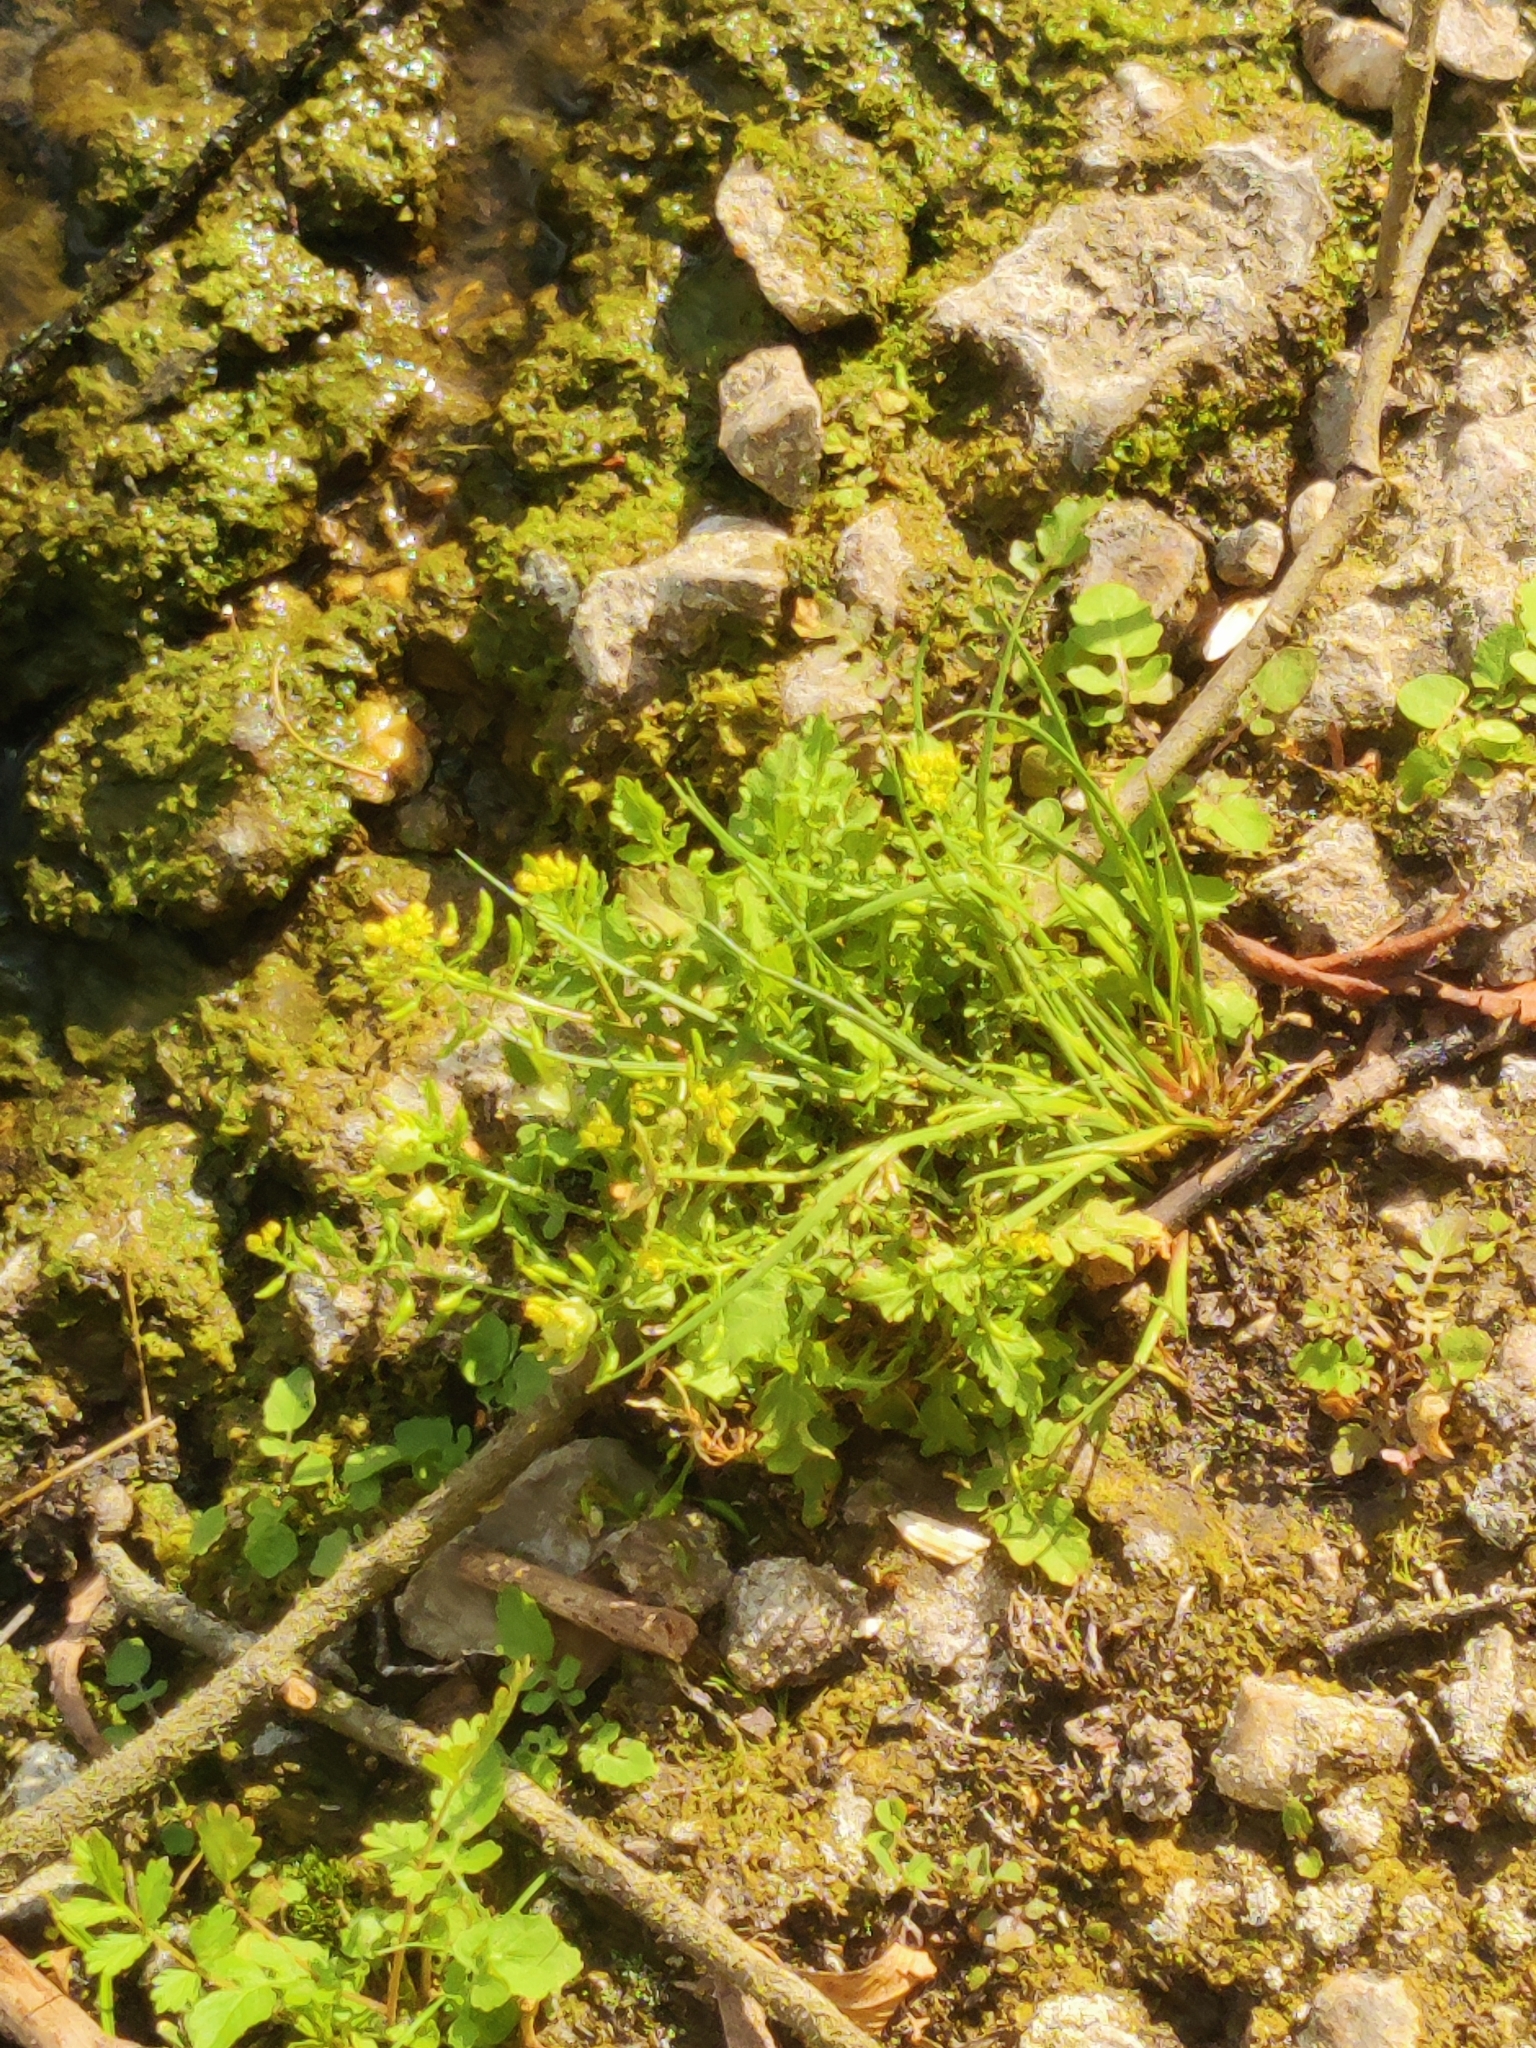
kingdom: Plantae
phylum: Tracheophyta
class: Magnoliopsida
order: Brassicales
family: Brassicaceae
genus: Rorippa
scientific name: Rorippa palustris
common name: Marsh yellow-cress
